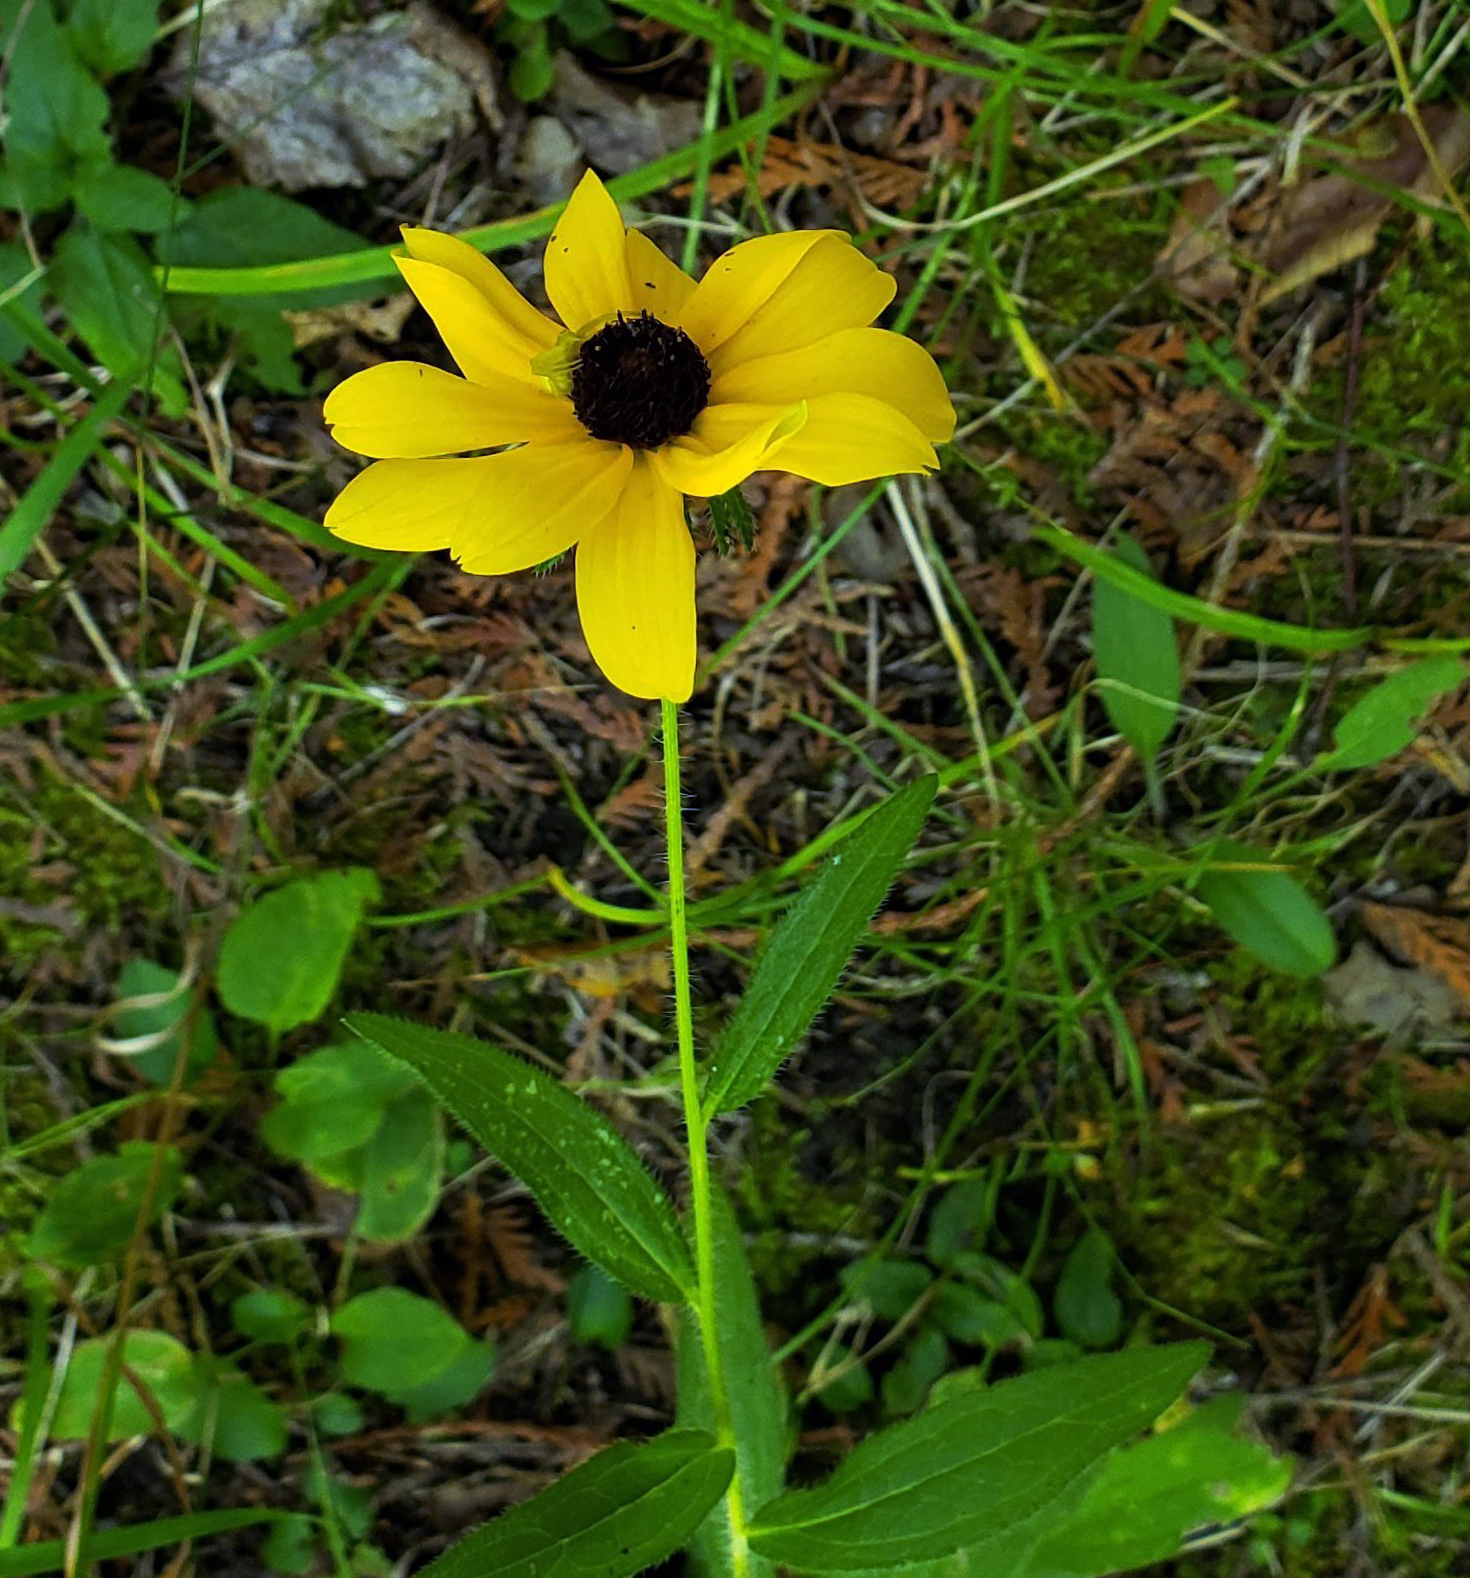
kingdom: Plantae
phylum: Tracheophyta
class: Magnoliopsida
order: Asterales
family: Asteraceae
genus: Rudbeckia
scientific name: Rudbeckia hirta
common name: Black-eyed-susan
